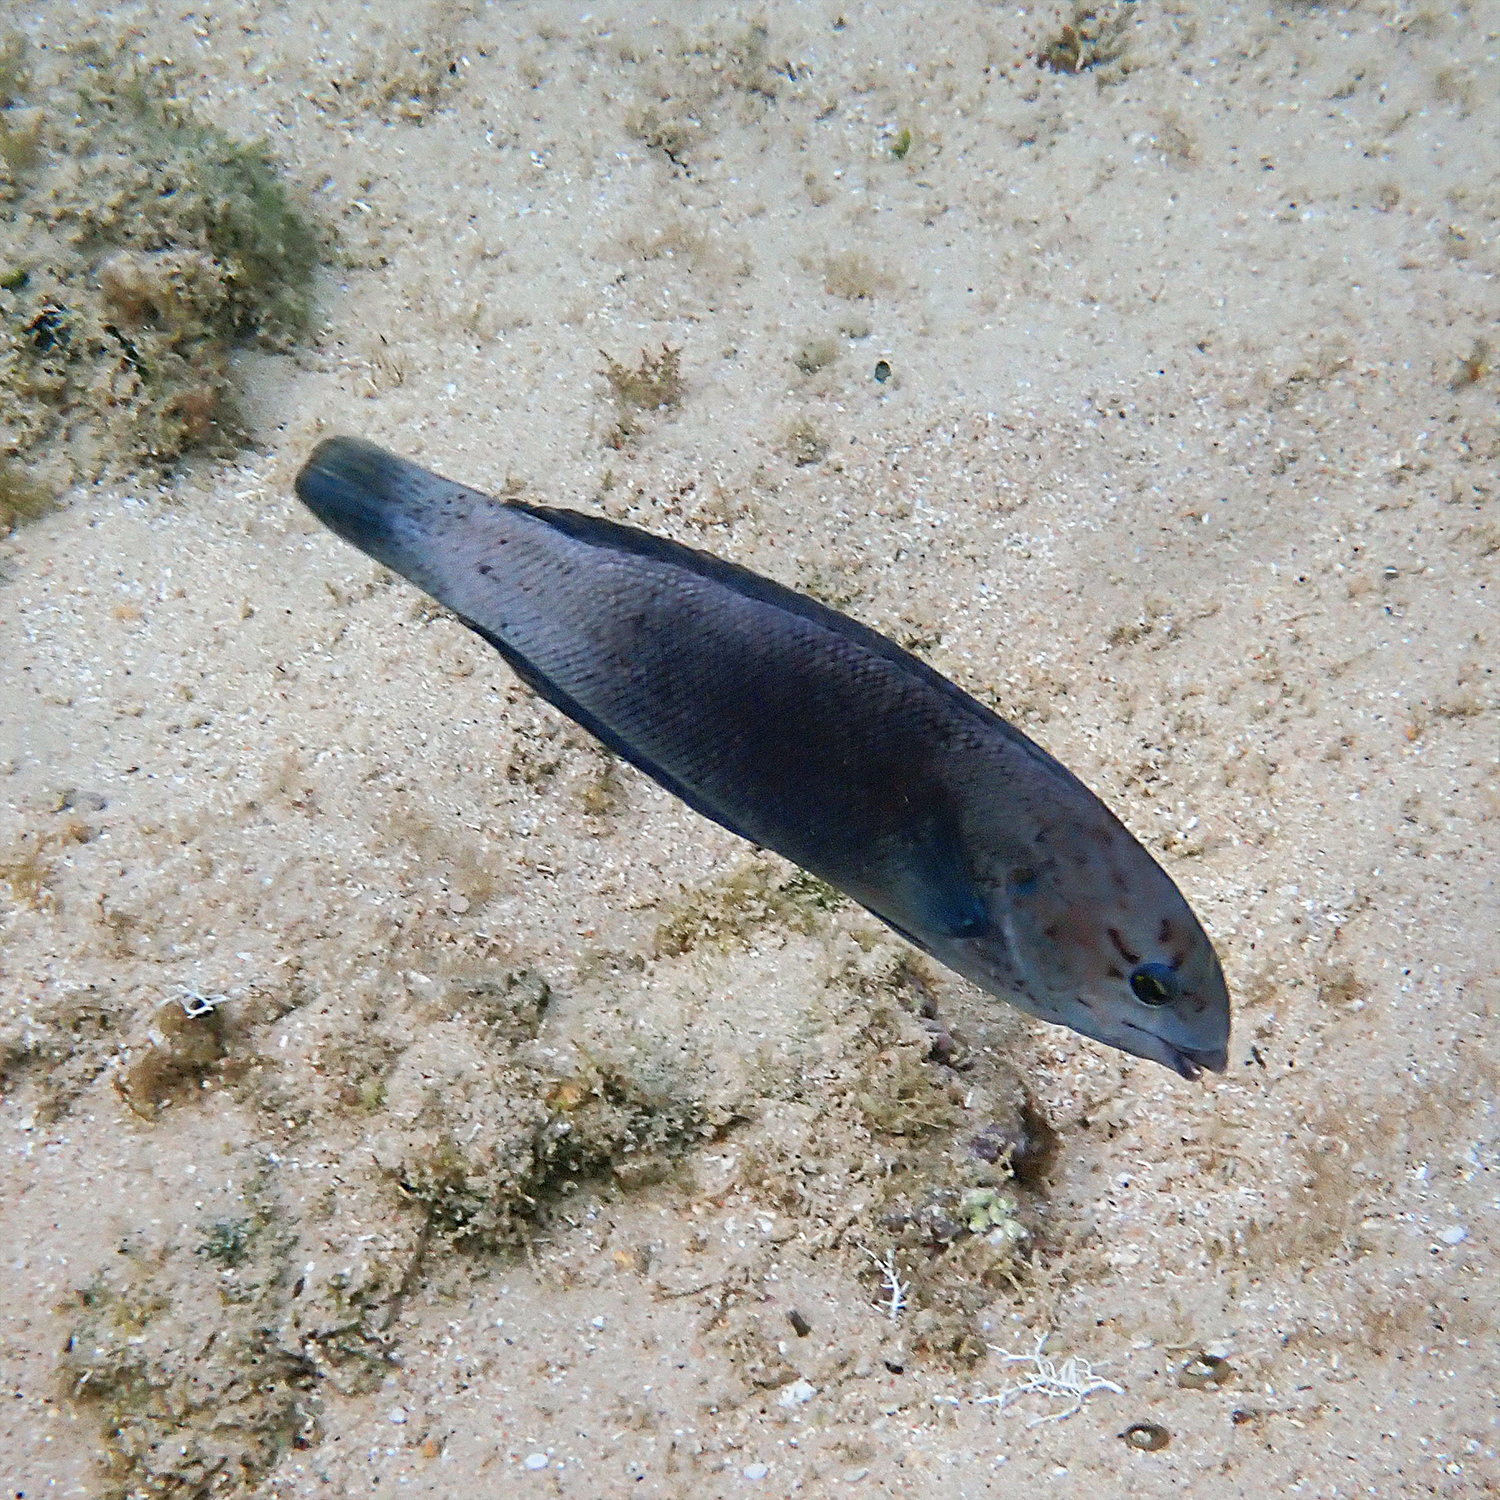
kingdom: Animalia
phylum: Chordata
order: Perciformes
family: Labridae
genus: Coris
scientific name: Coris bulbifrons
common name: Doubleheader
